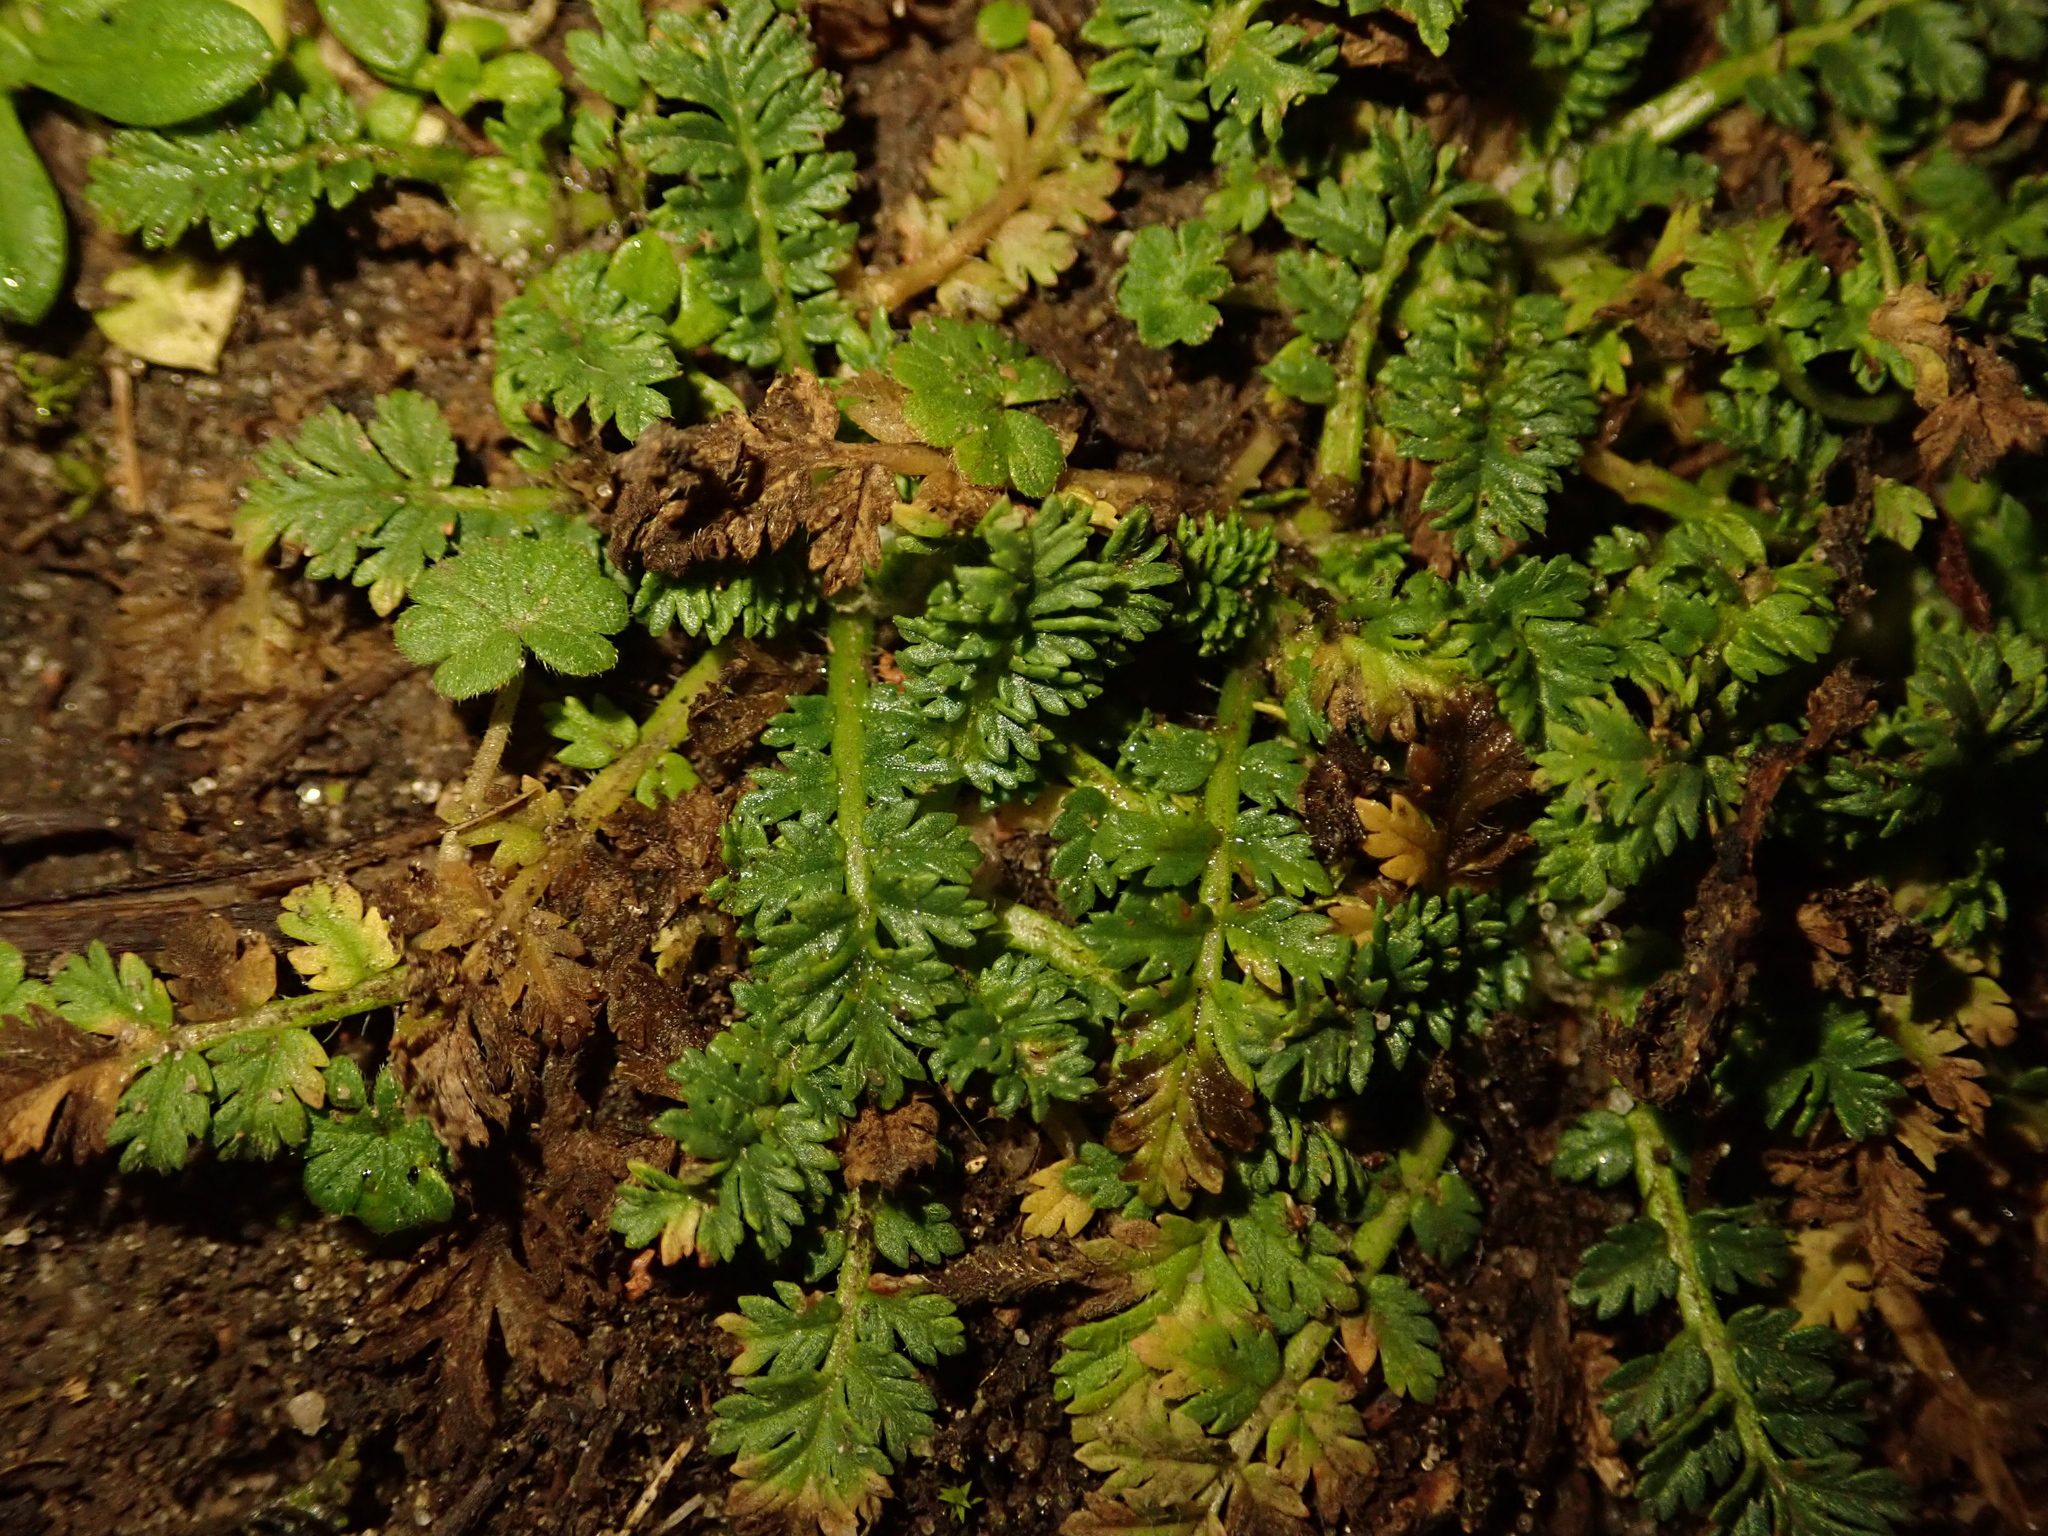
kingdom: Plantae
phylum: Tracheophyta
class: Magnoliopsida
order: Geraniales
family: Geraniaceae
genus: Erodium
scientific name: Erodium cicutarium
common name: Common stork's-bill
